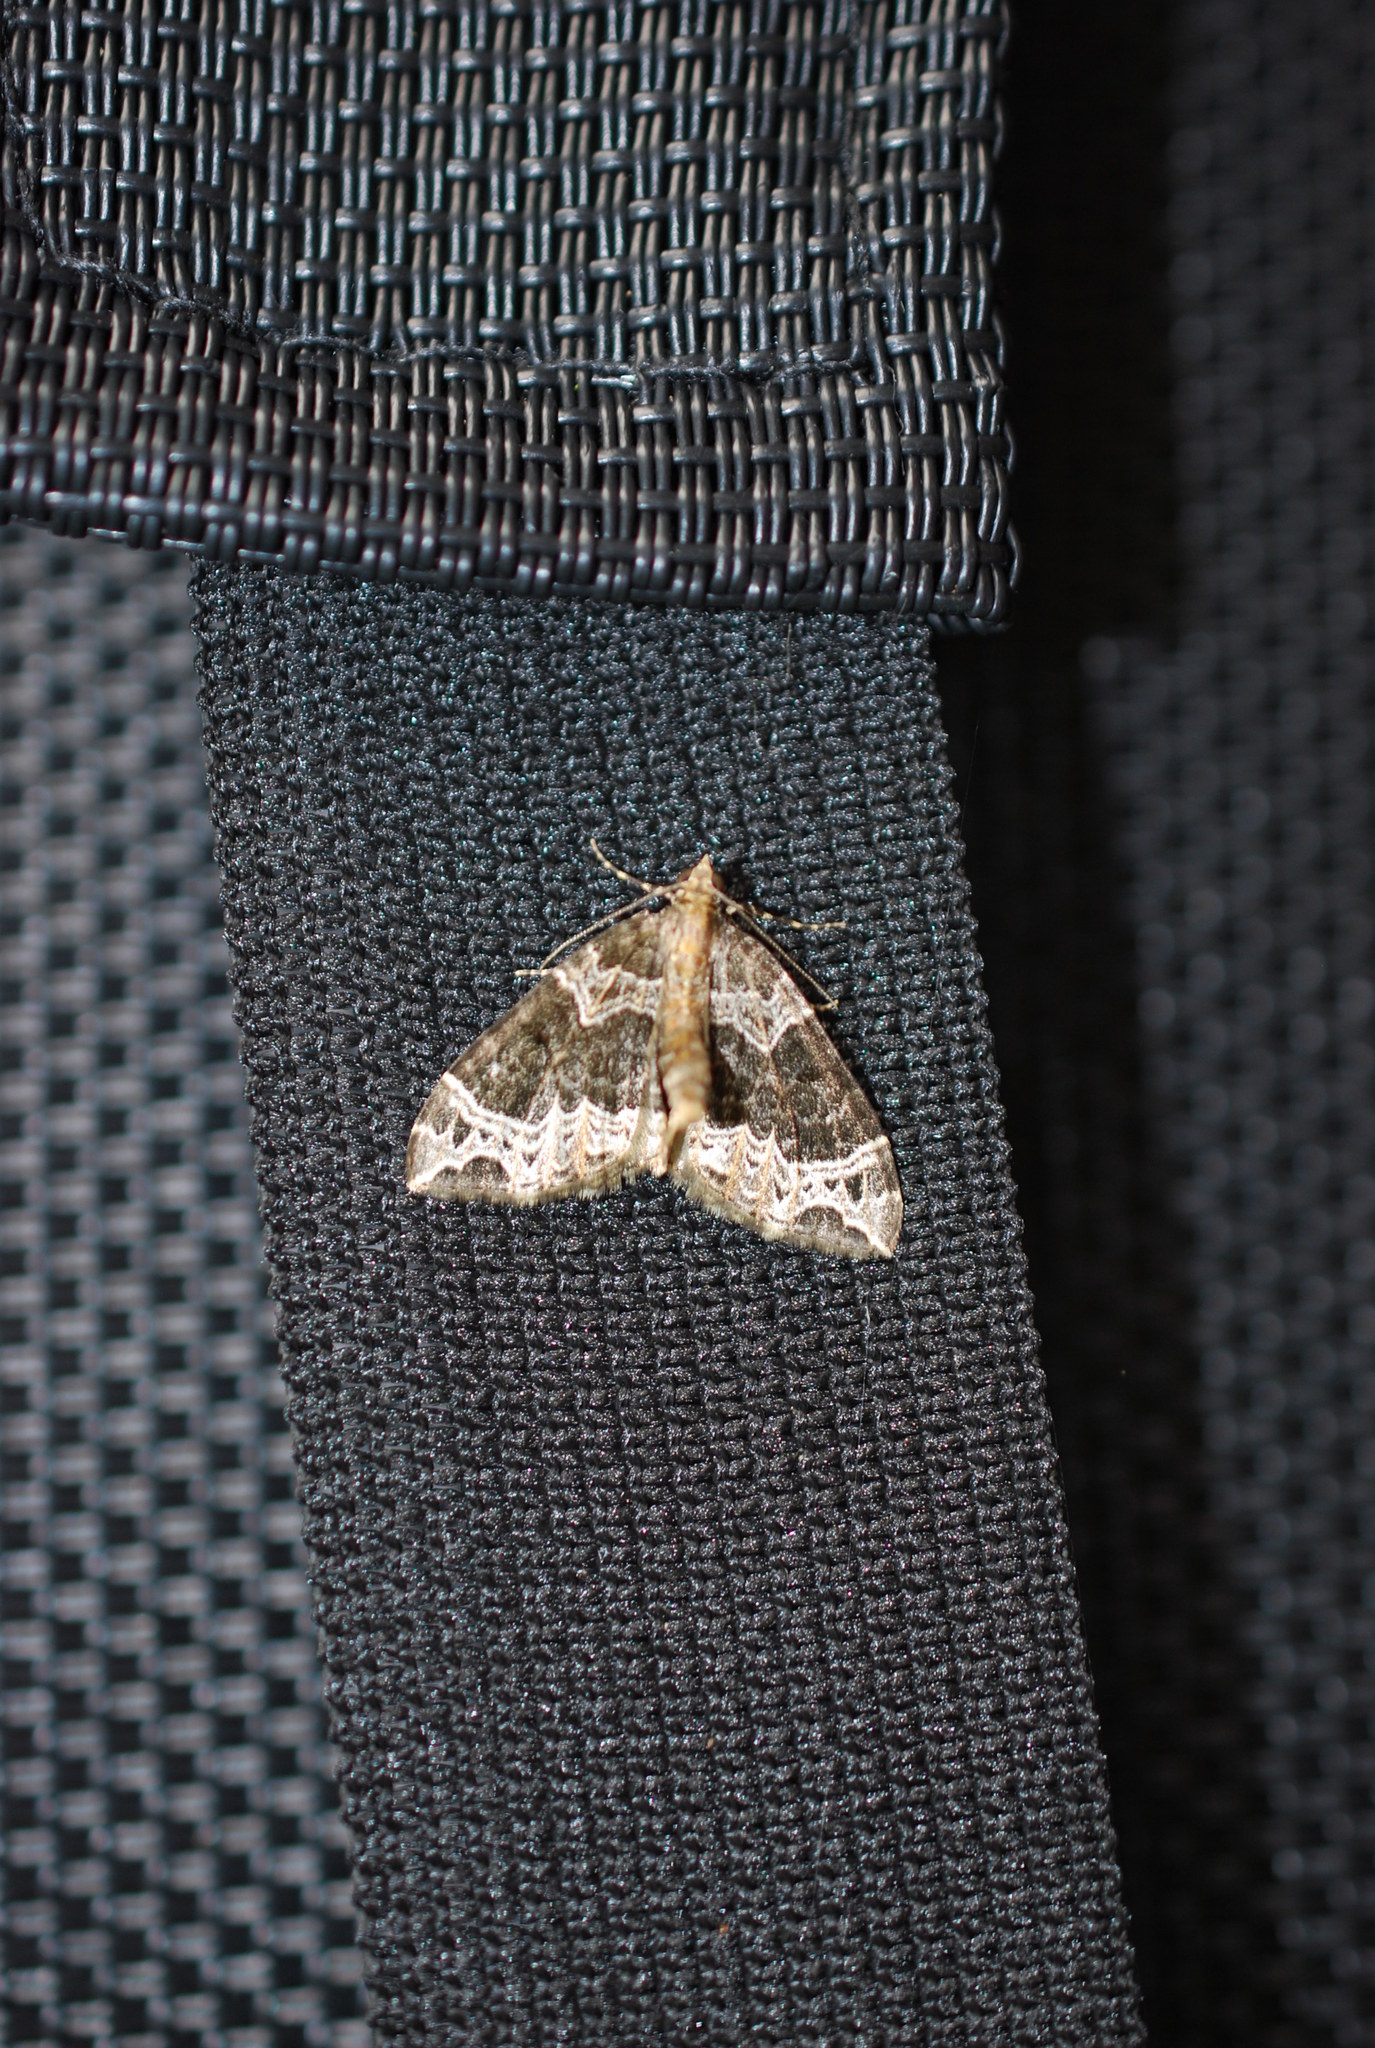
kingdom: Animalia
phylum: Arthropoda
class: Insecta
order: Lepidoptera
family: Geometridae
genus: Ecliptopera
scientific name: Ecliptopera silaceata
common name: Small phoenix
